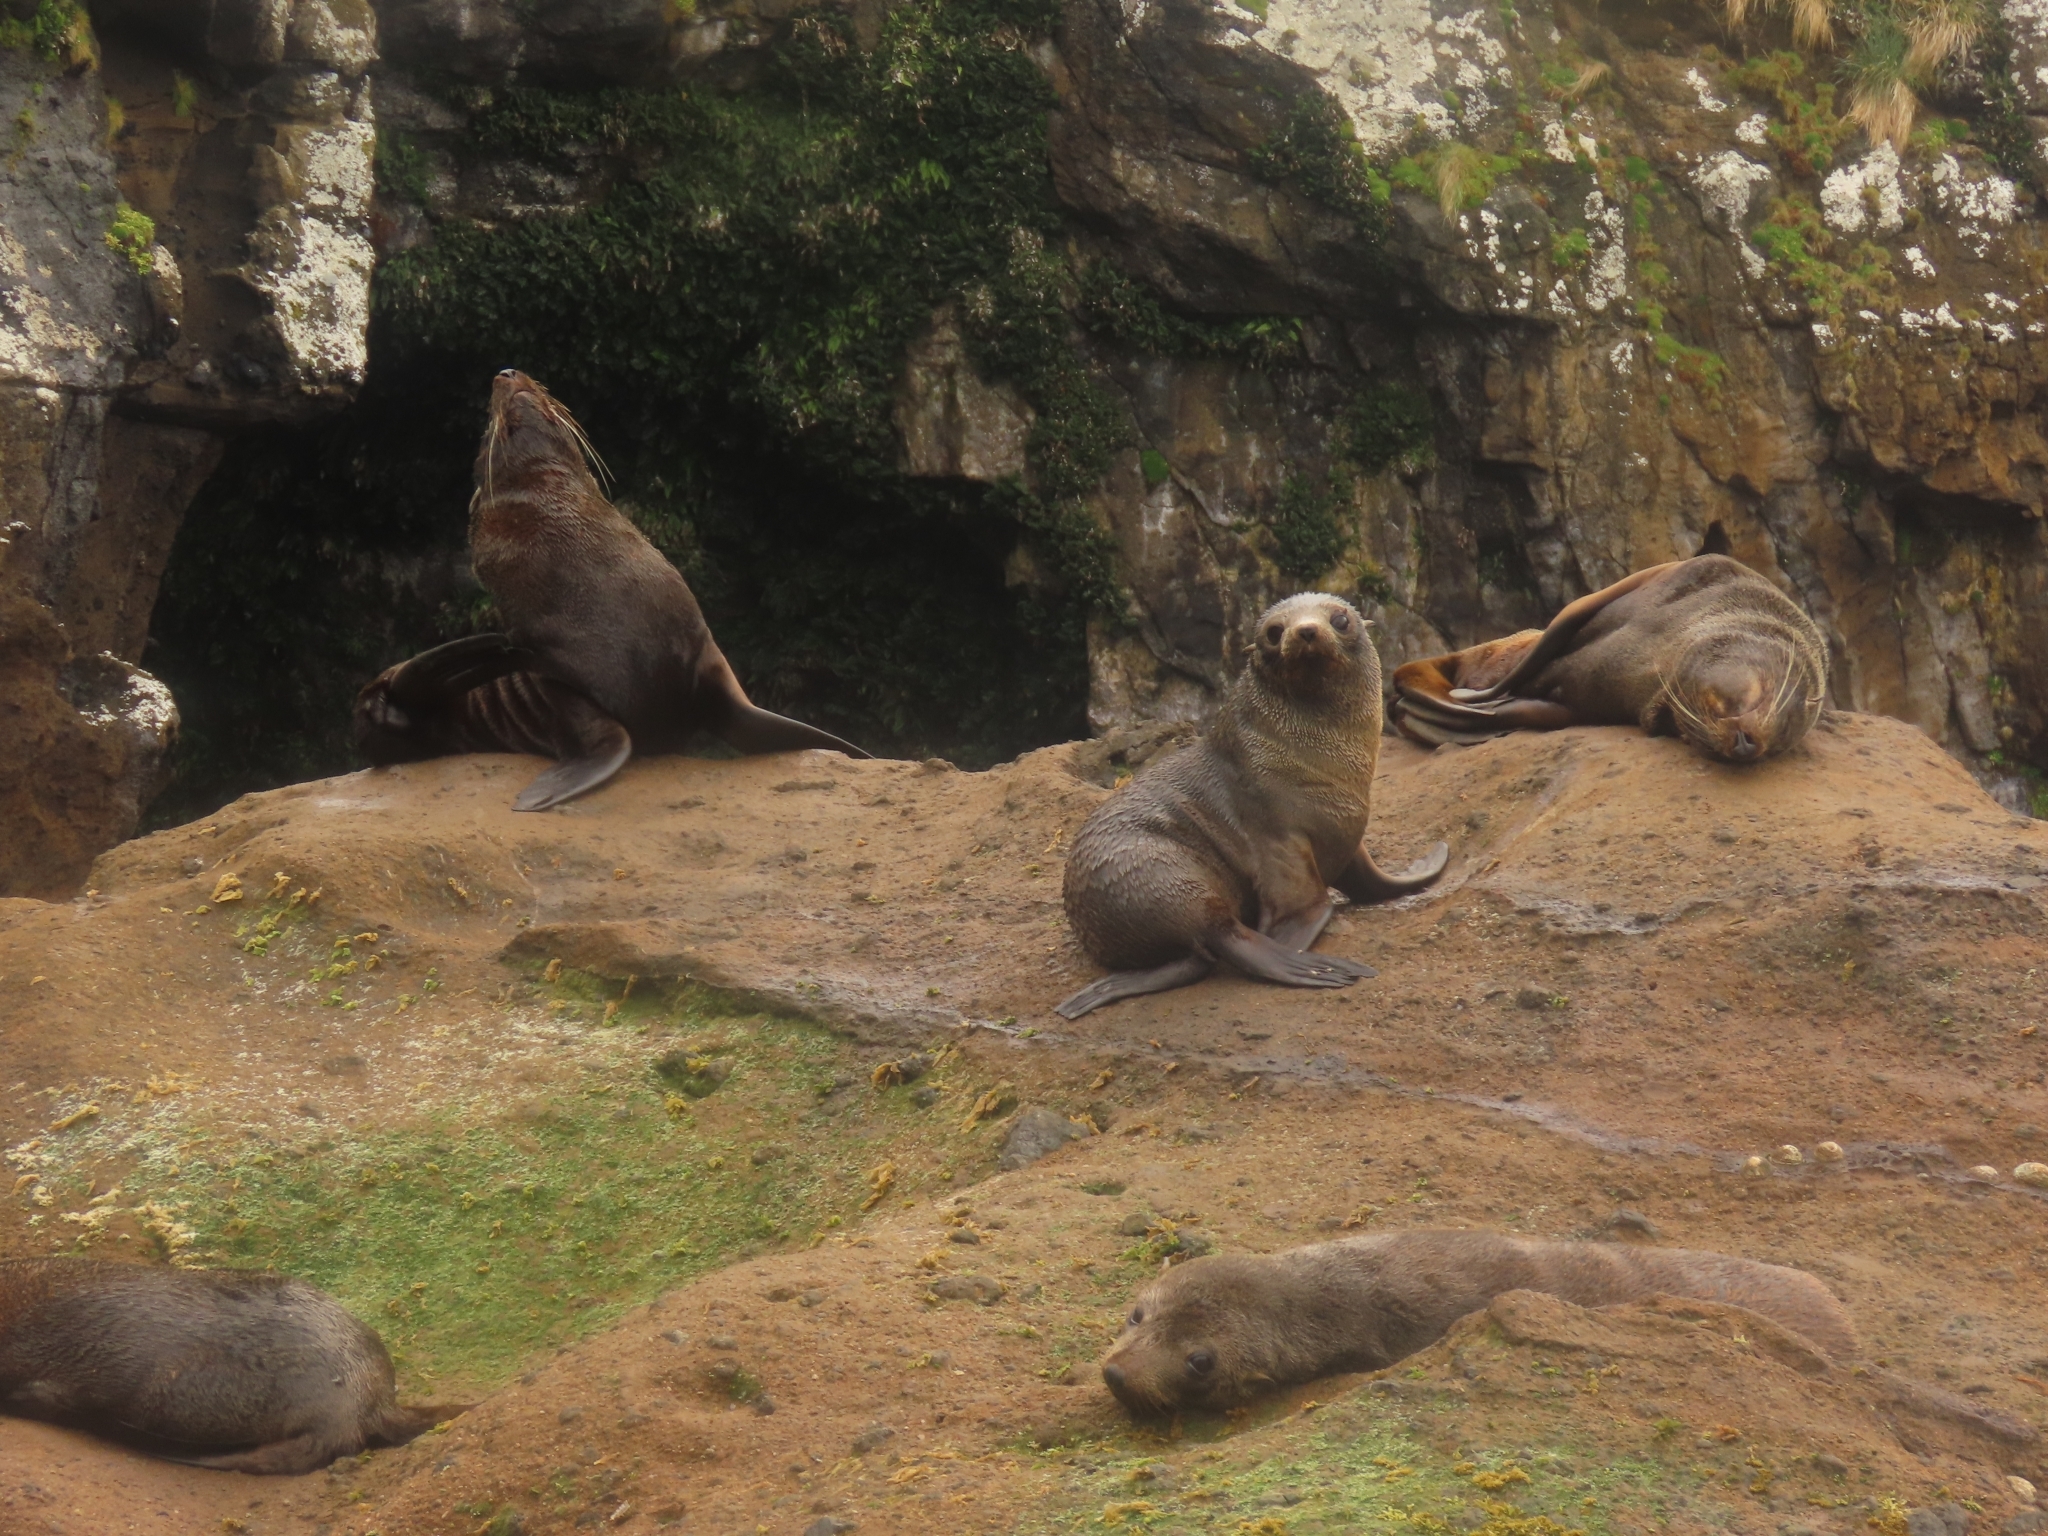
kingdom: Animalia
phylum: Chordata
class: Mammalia
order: Carnivora
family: Otariidae
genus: Arctocephalus
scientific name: Arctocephalus forsteri
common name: New zealand fur seal
